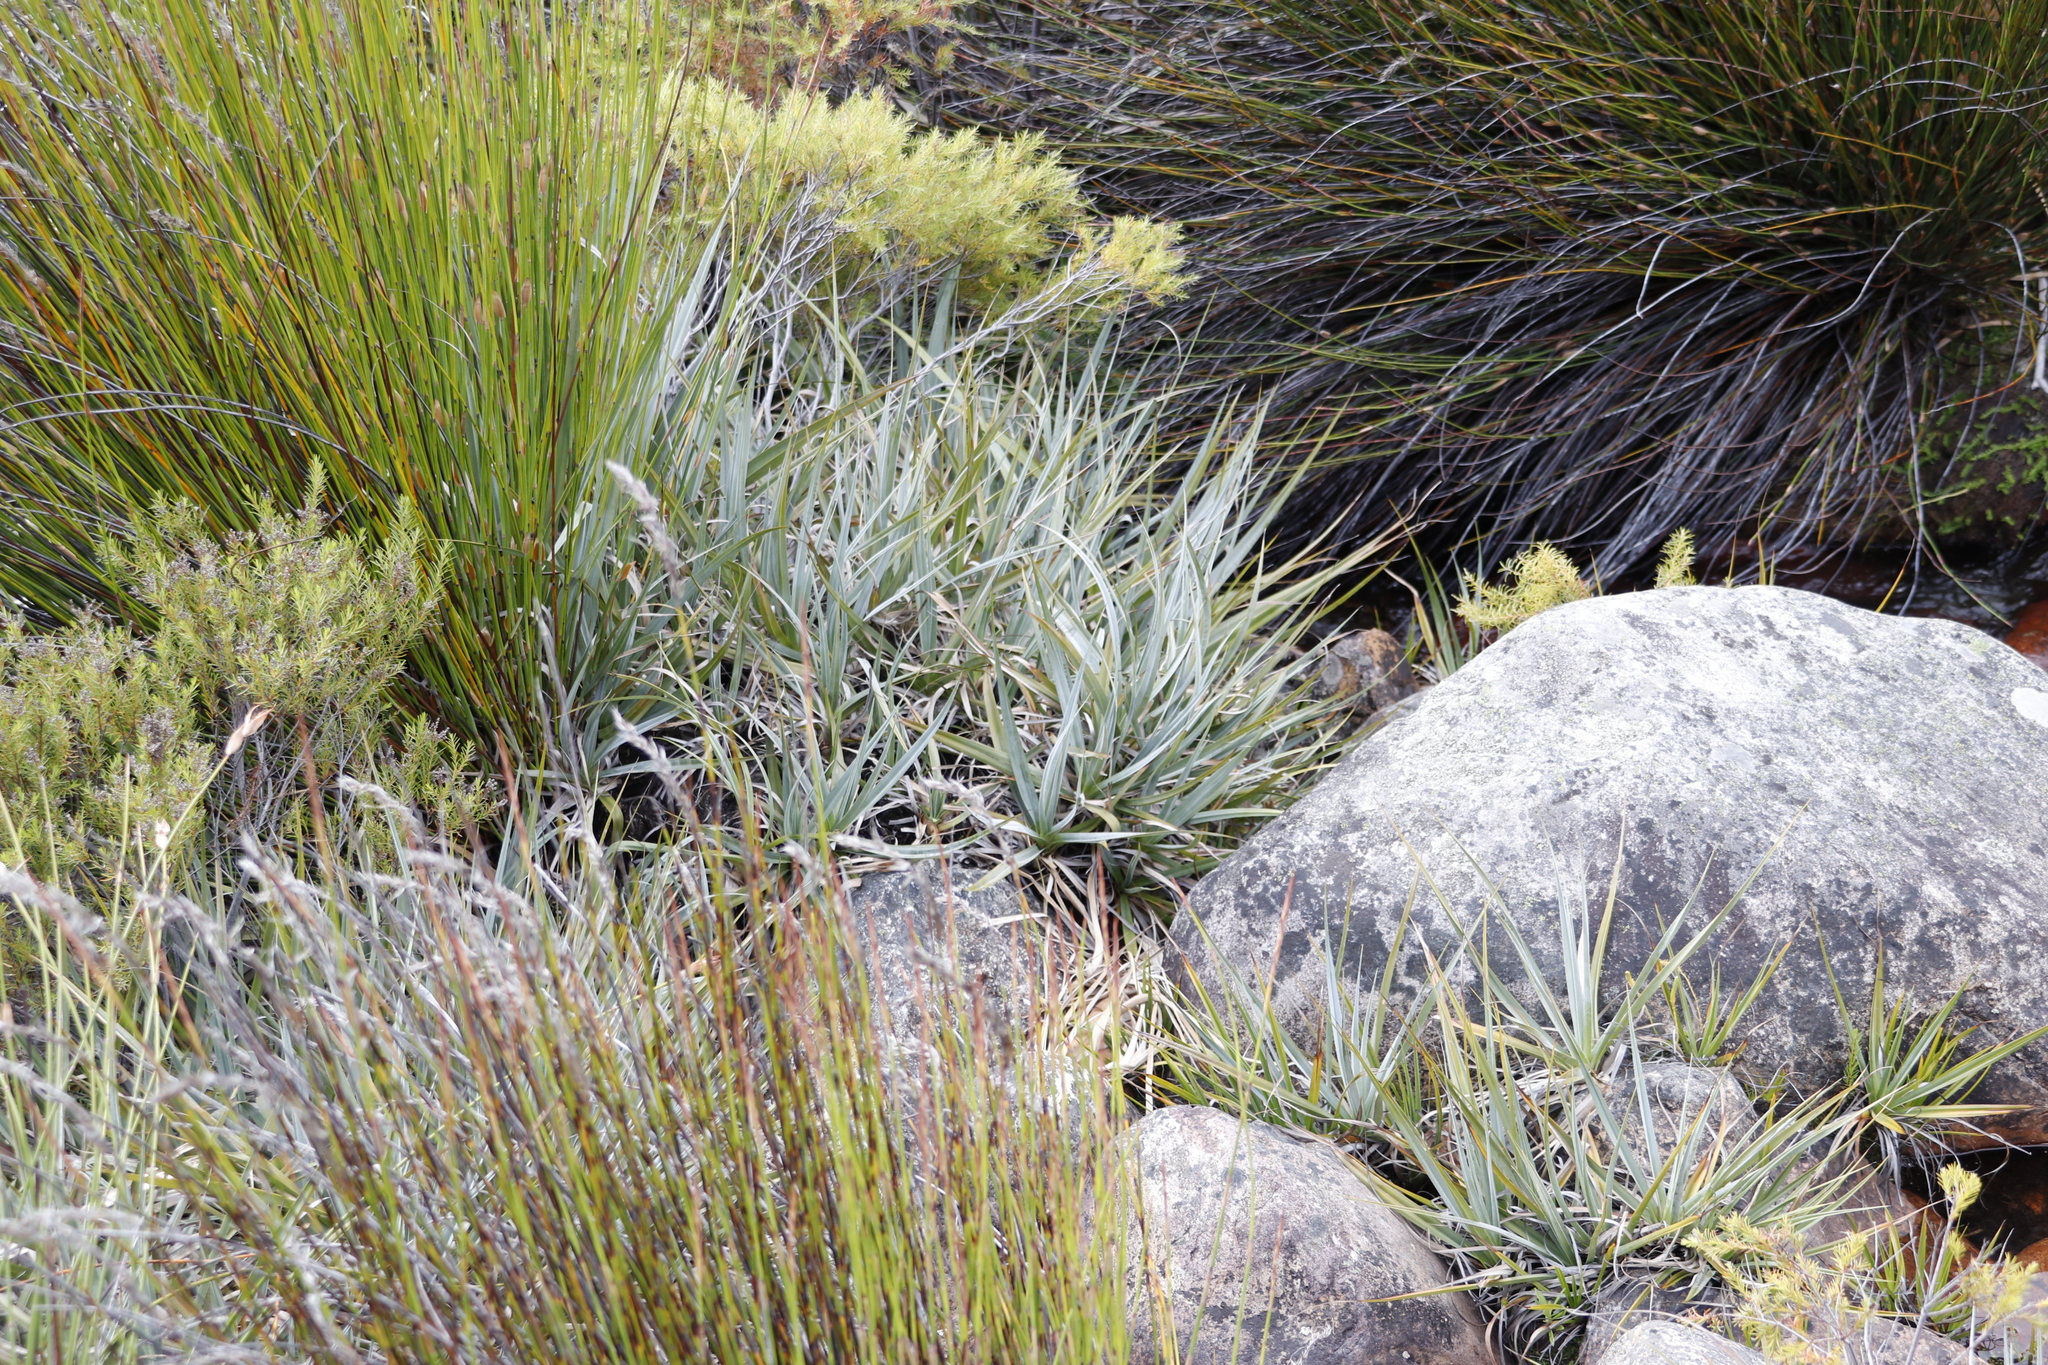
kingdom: Plantae
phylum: Tracheophyta
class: Liliopsida
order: Poales
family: Thurniaceae
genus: Prionium
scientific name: Prionium serratum
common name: Palmiet
